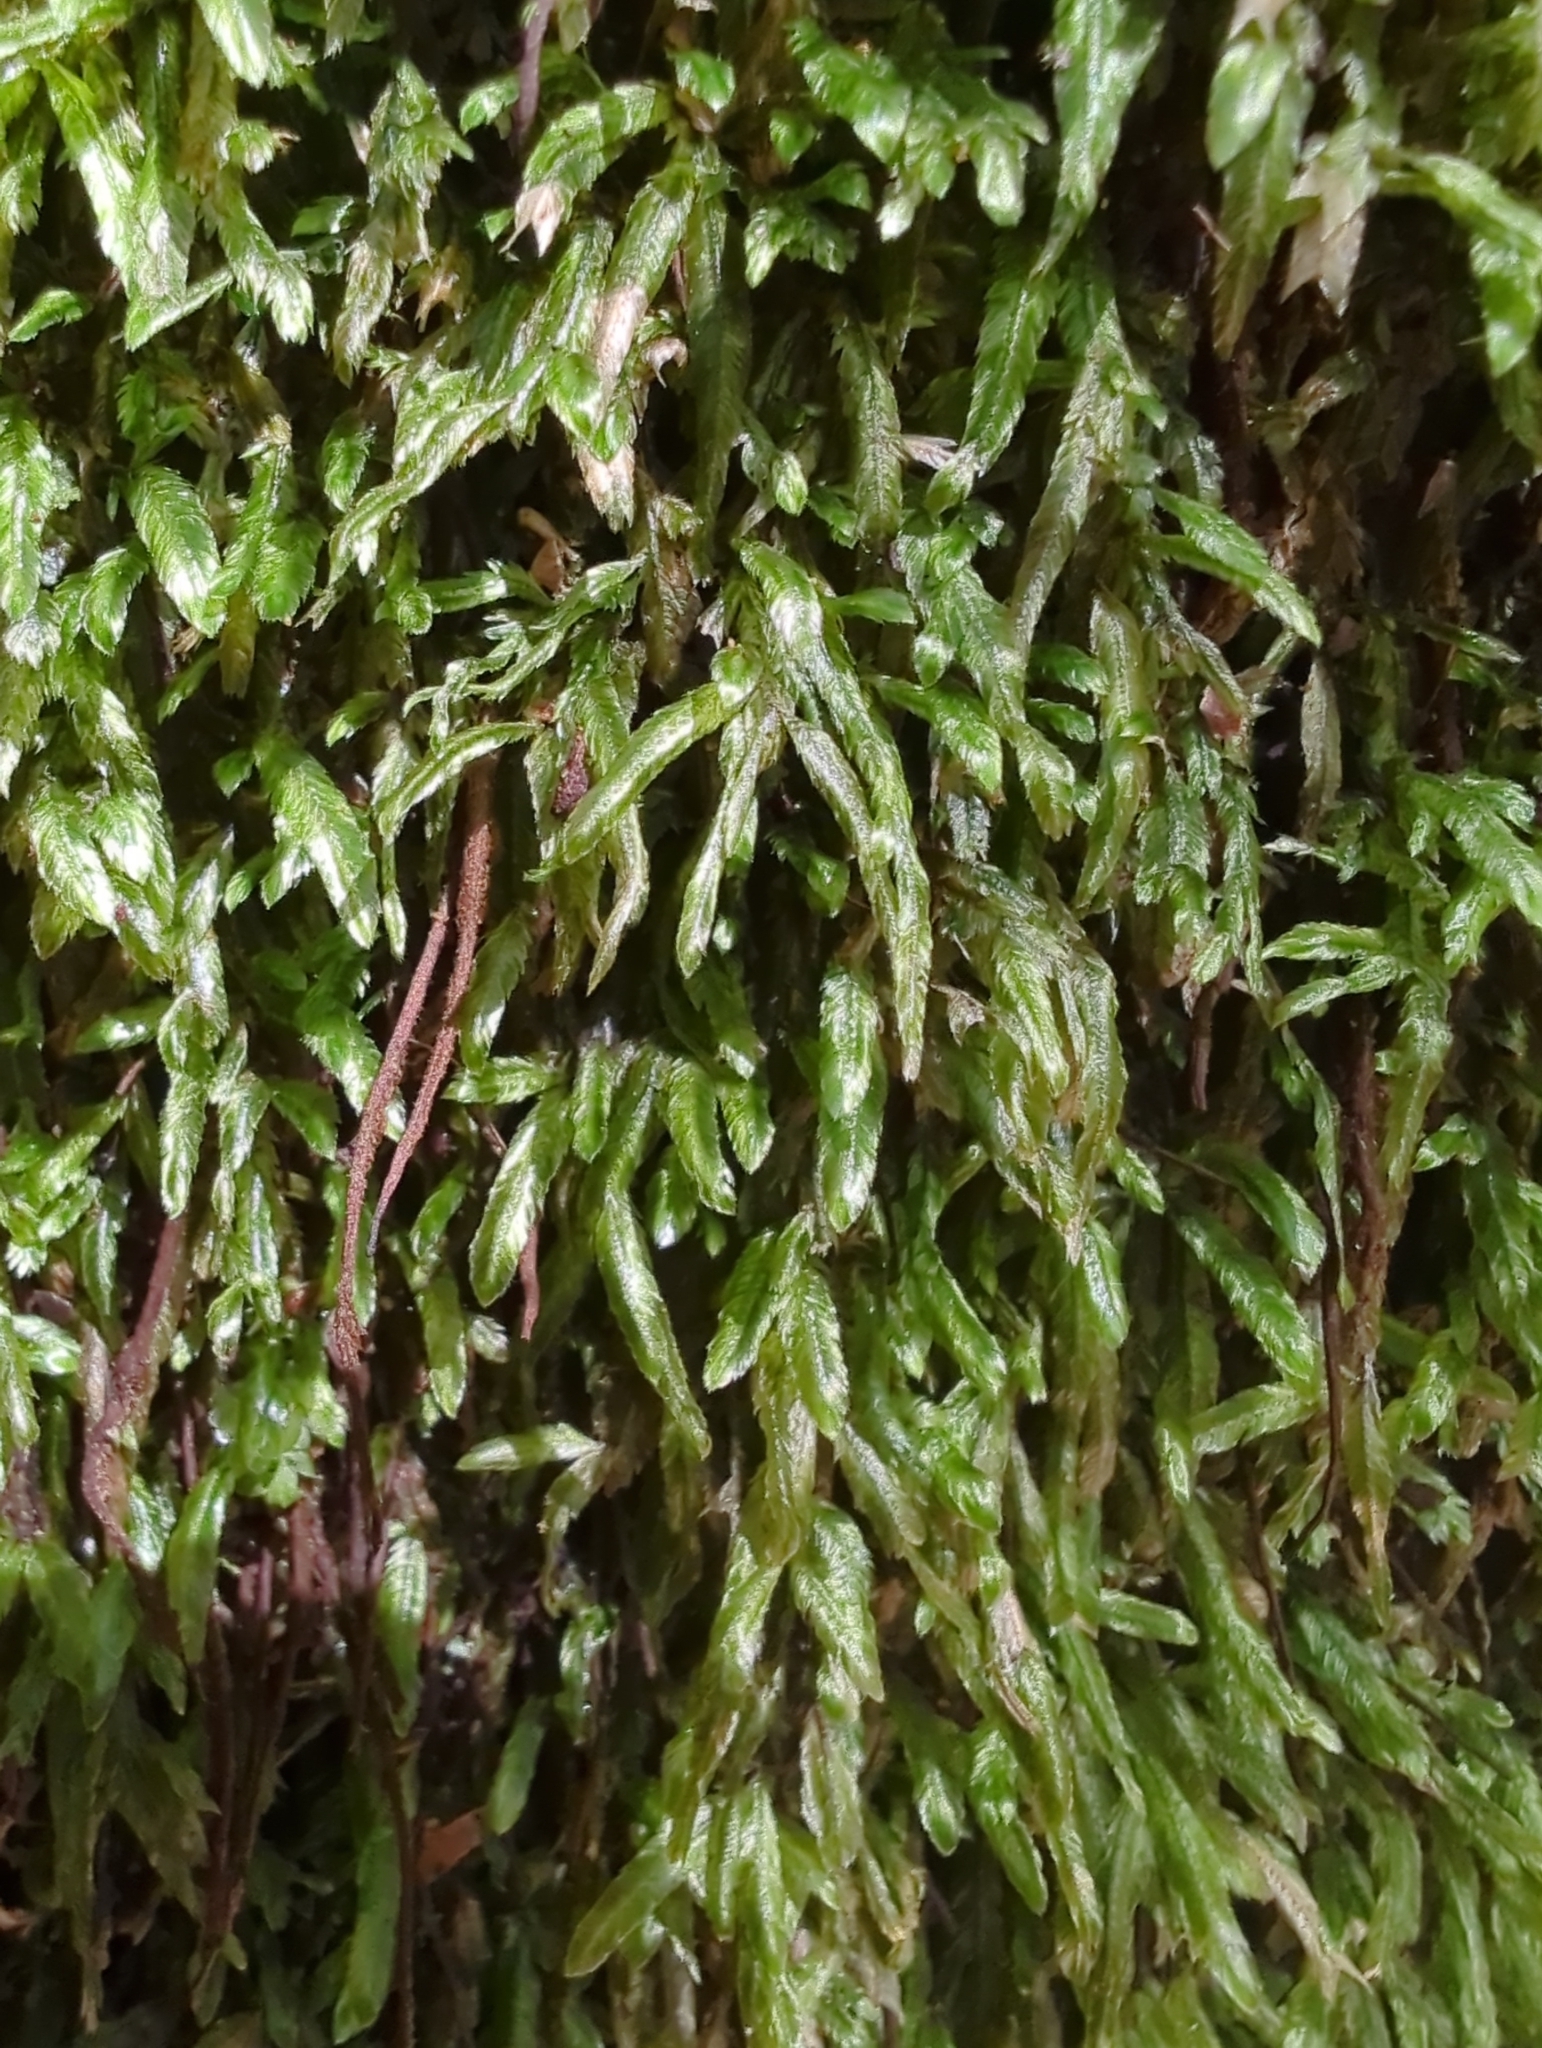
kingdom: Plantae
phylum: Bryophyta
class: Bryopsida
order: Hypnales
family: Catagoniaceae
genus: Catagonium
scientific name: Catagonium nitens
